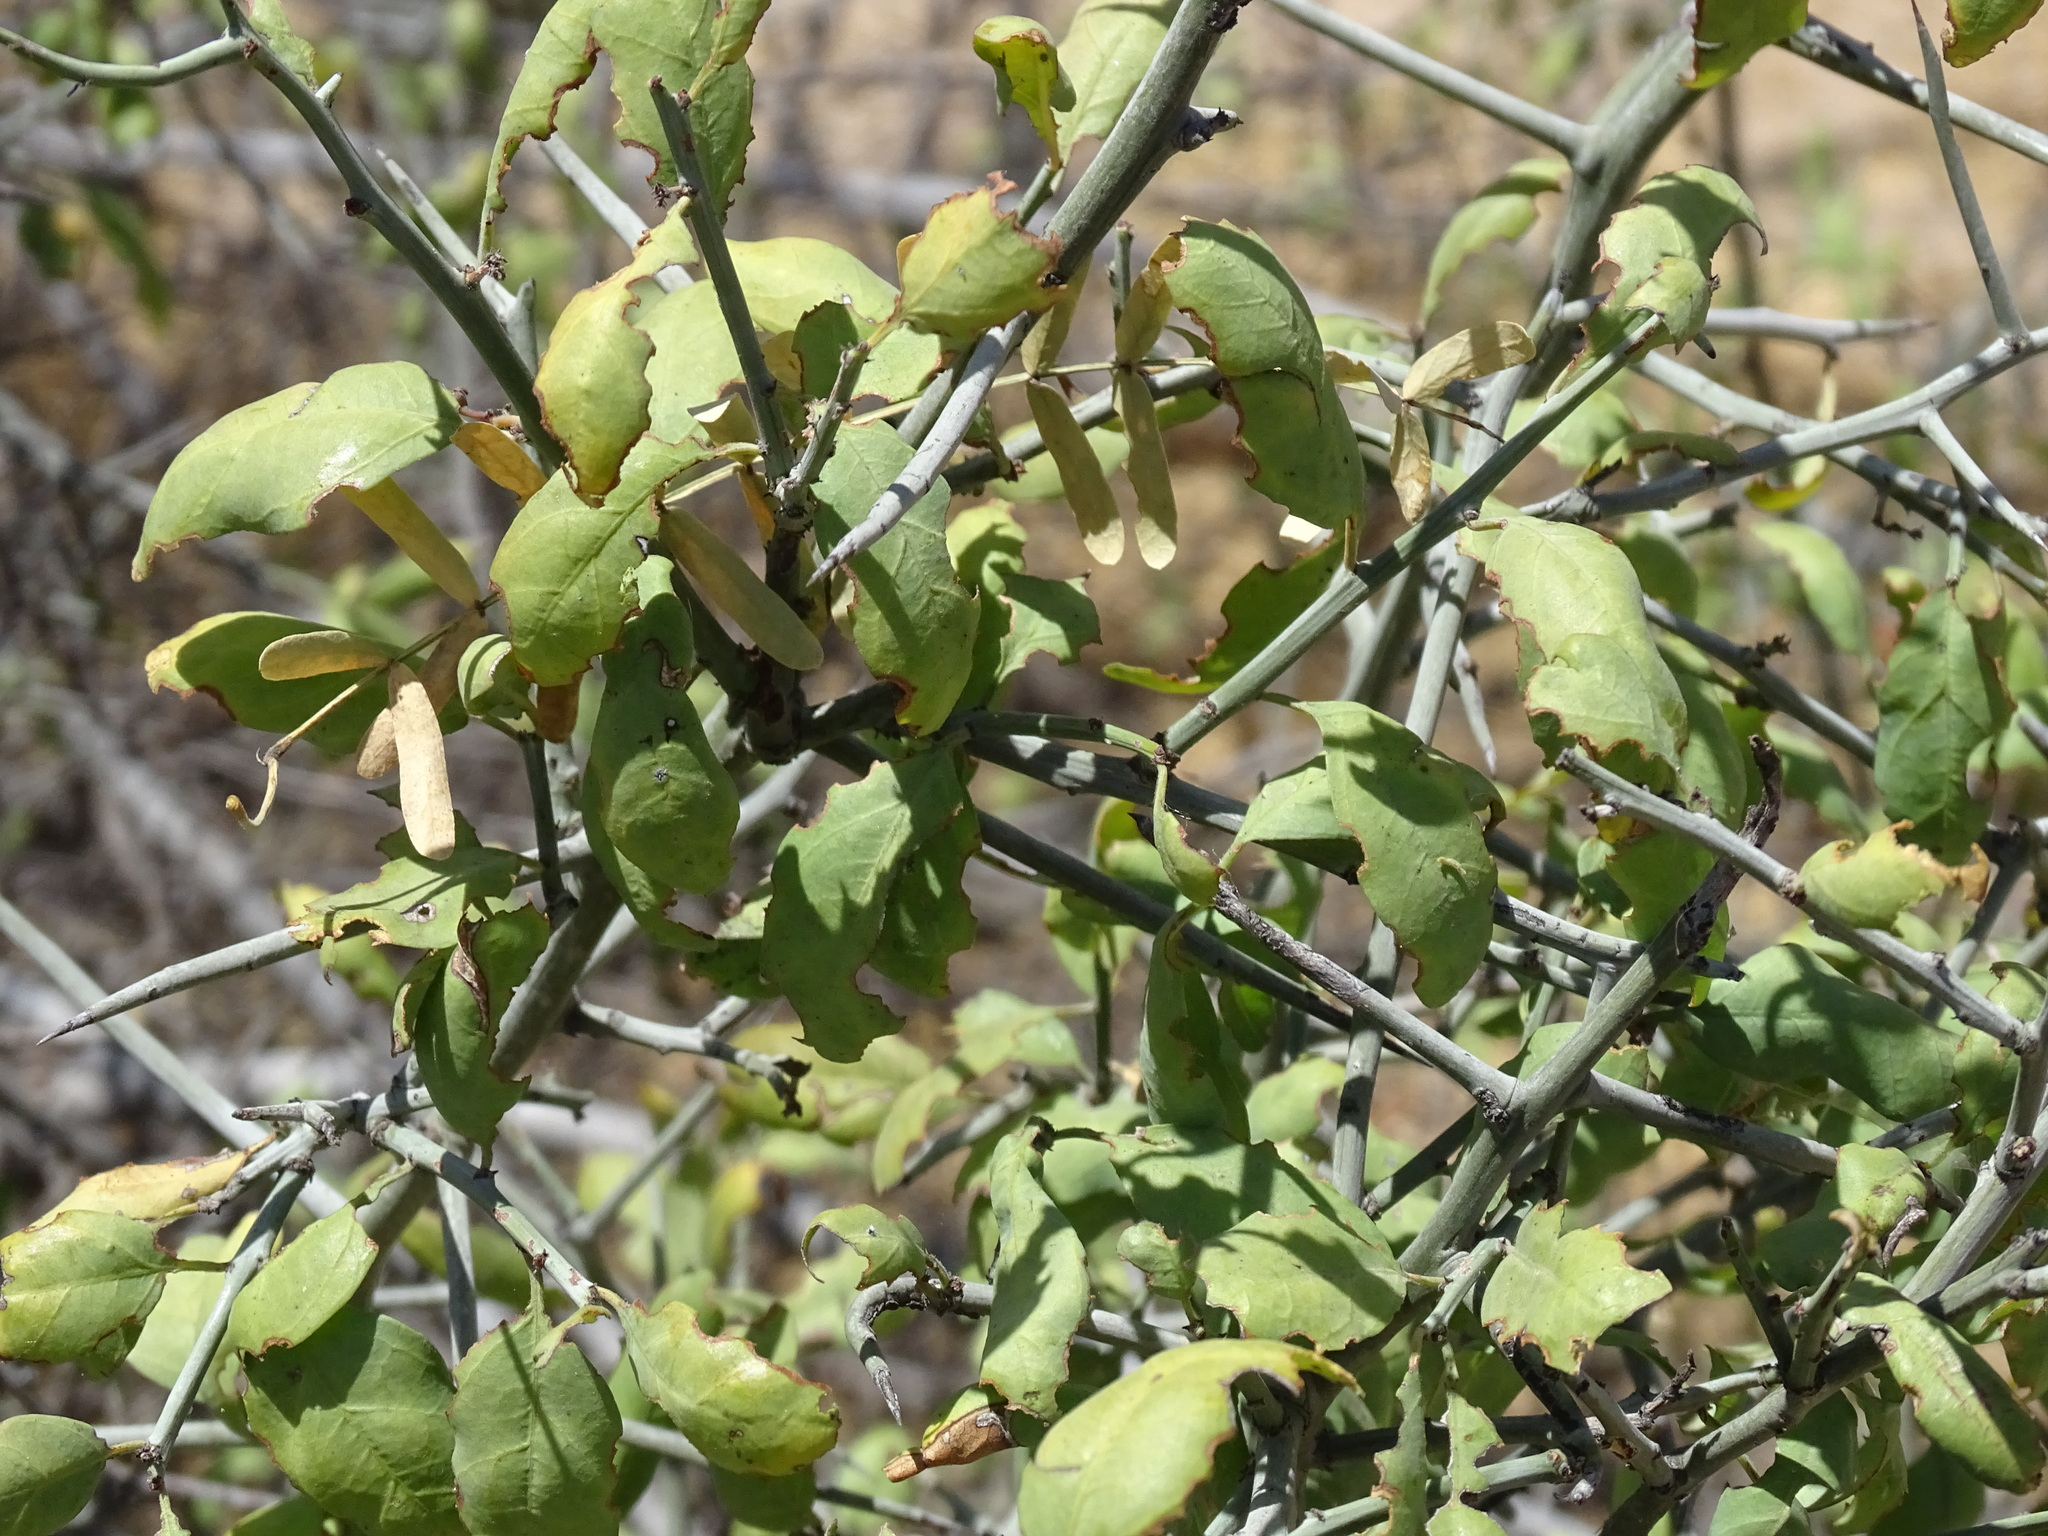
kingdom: Plantae
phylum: Tracheophyta
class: Magnoliopsida
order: Rosales
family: Rhamnaceae
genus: Sarcomphalus
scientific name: Sarcomphalus obtusifolius
